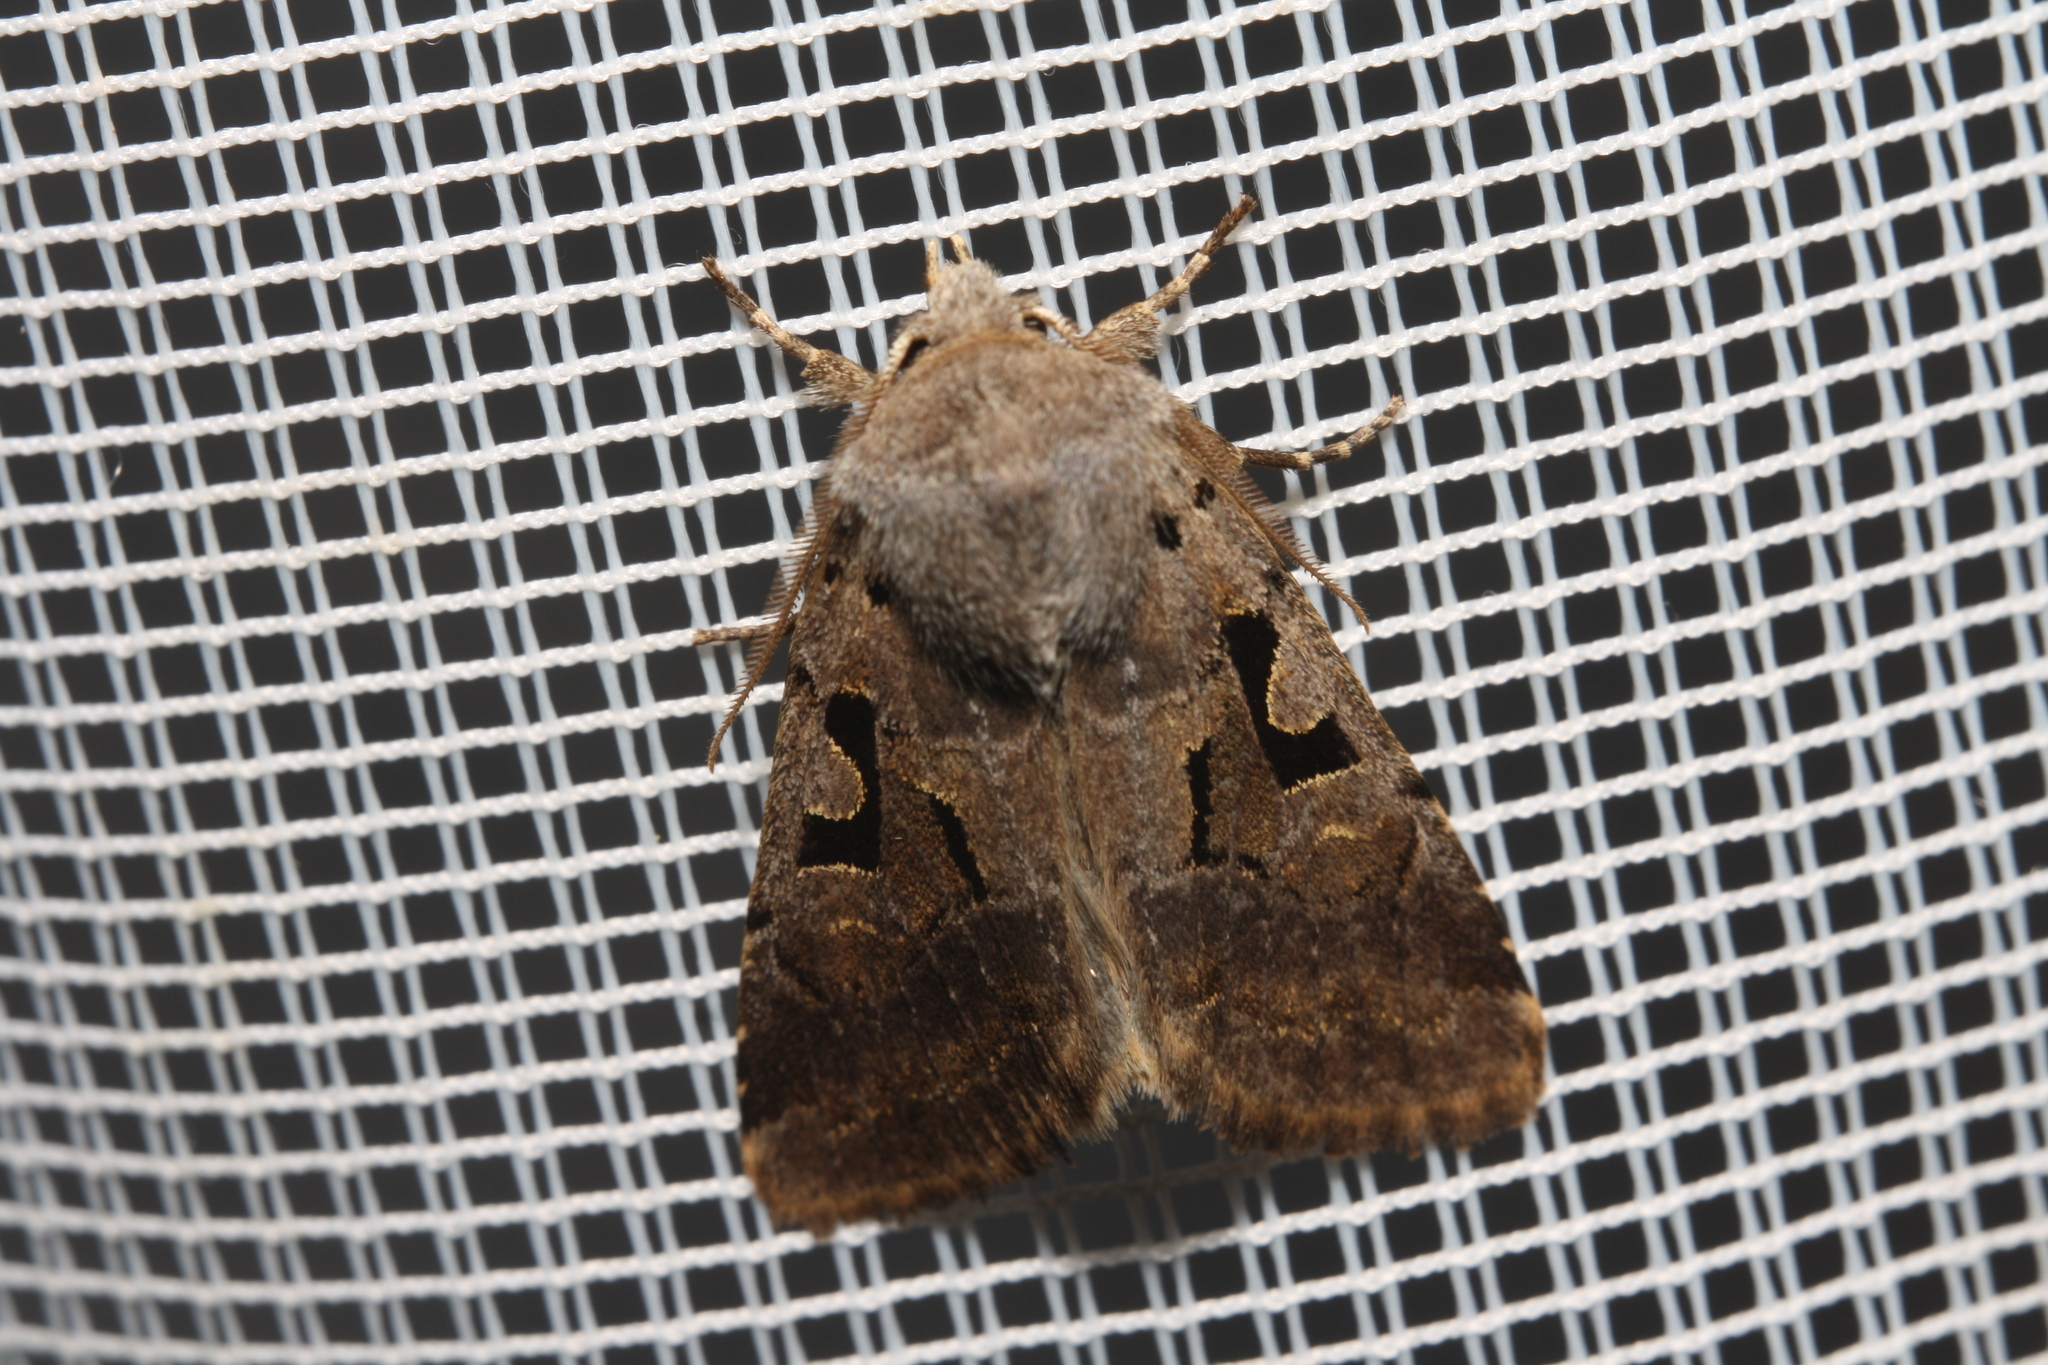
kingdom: Animalia
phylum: Arthropoda
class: Insecta
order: Lepidoptera
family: Noctuidae
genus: Orthosia
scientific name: Orthosia gothica
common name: Hebrew character
